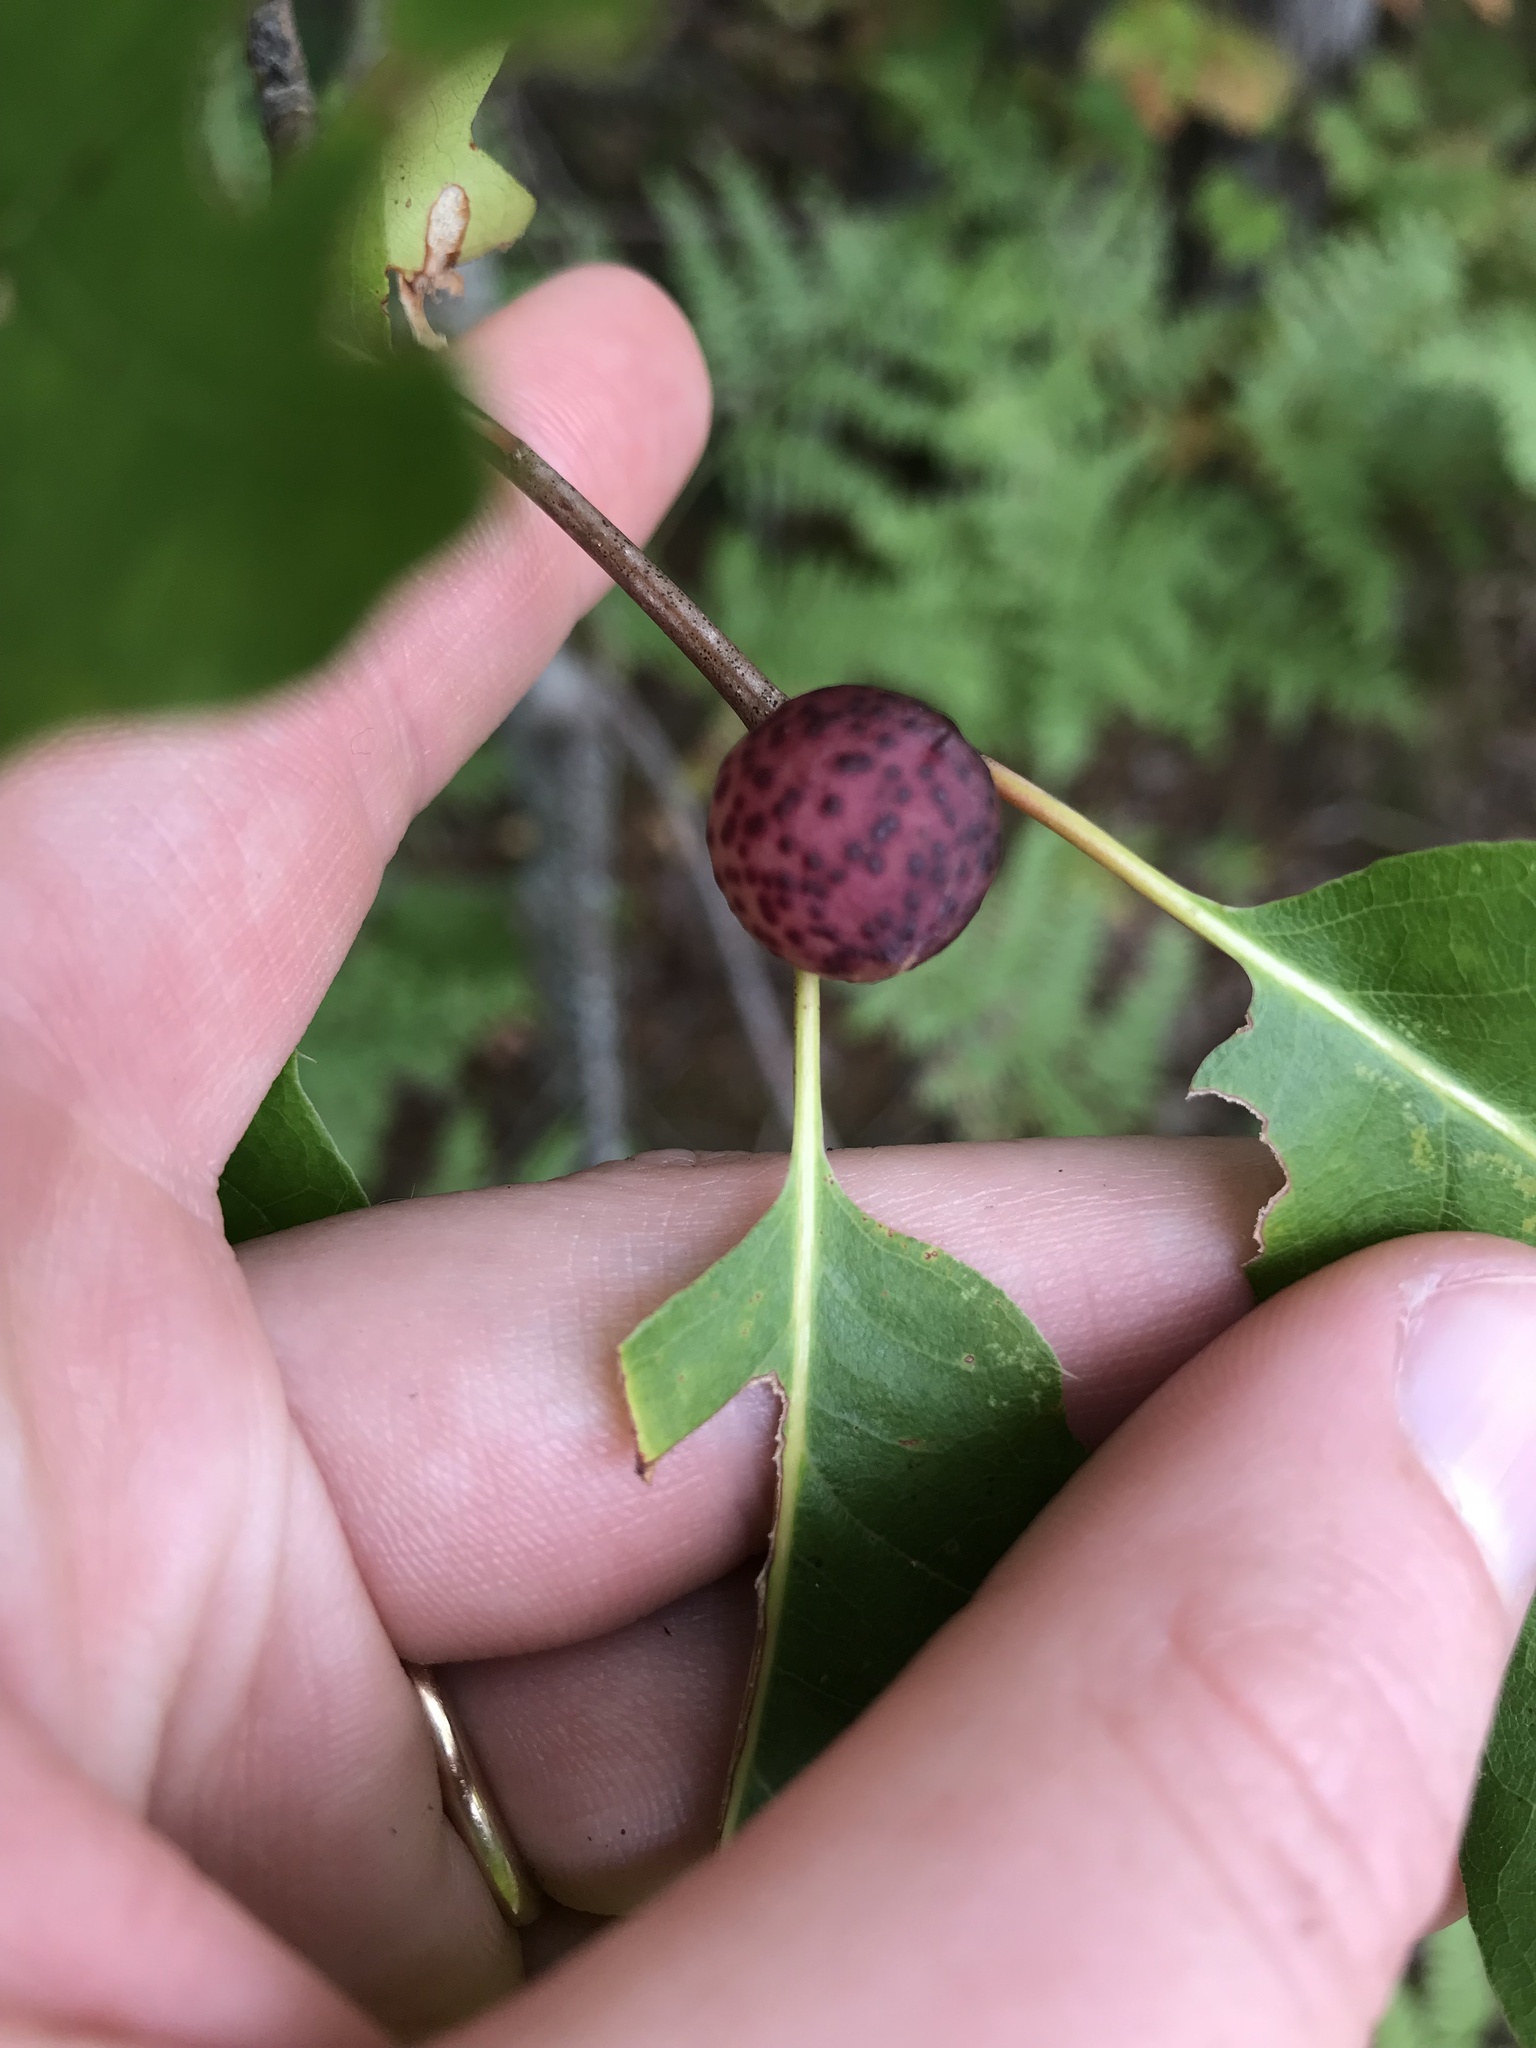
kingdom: Animalia
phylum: Arthropoda
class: Insecta
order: Hymenoptera
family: Cynipidae
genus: Amphibolips
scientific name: Amphibolips
